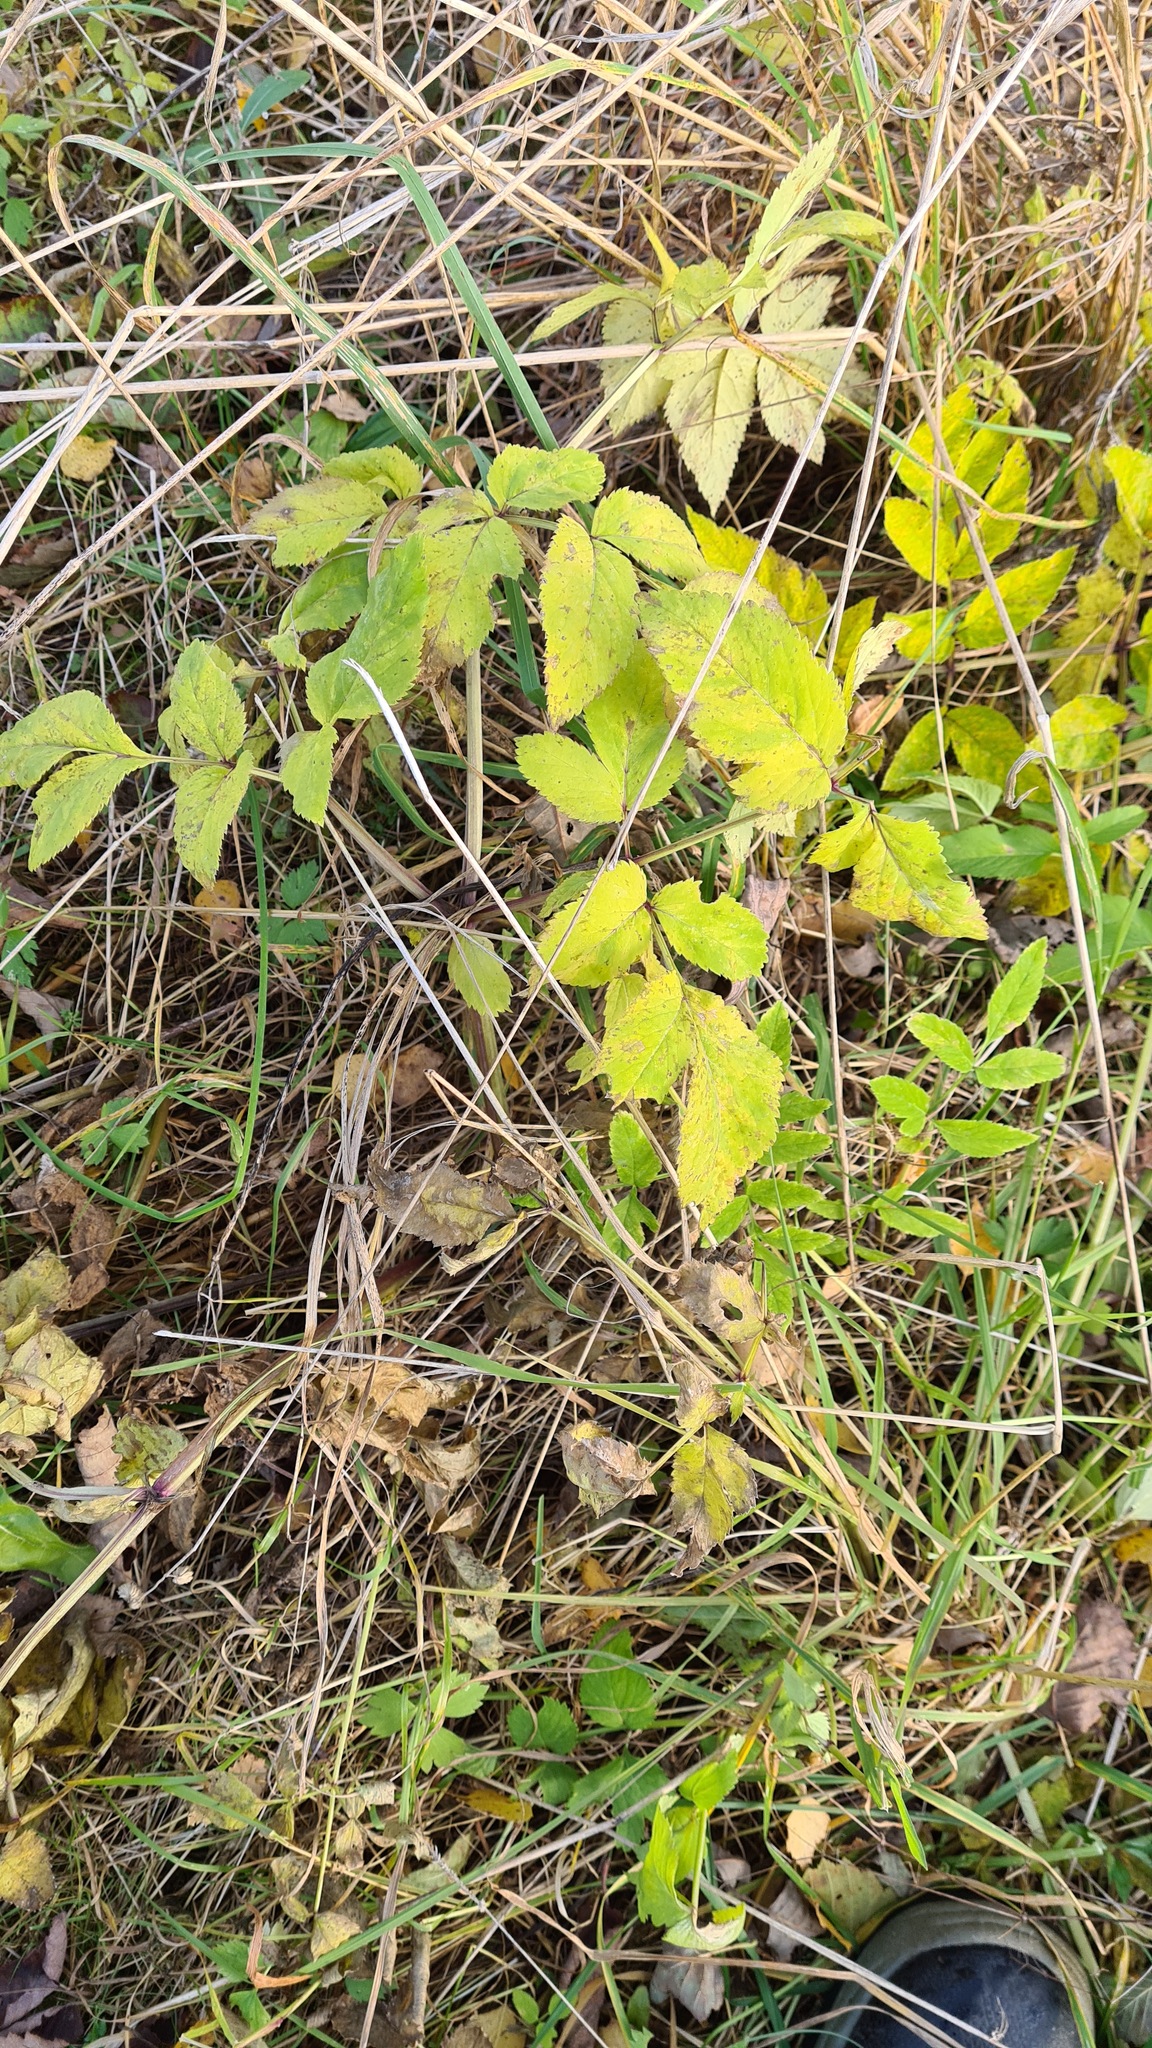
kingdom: Plantae
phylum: Tracheophyta
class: Magnoliopsida
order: Apiales
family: Apiaceae
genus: Aegopodium
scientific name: Aegopodium podagraria
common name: Ground-elder
